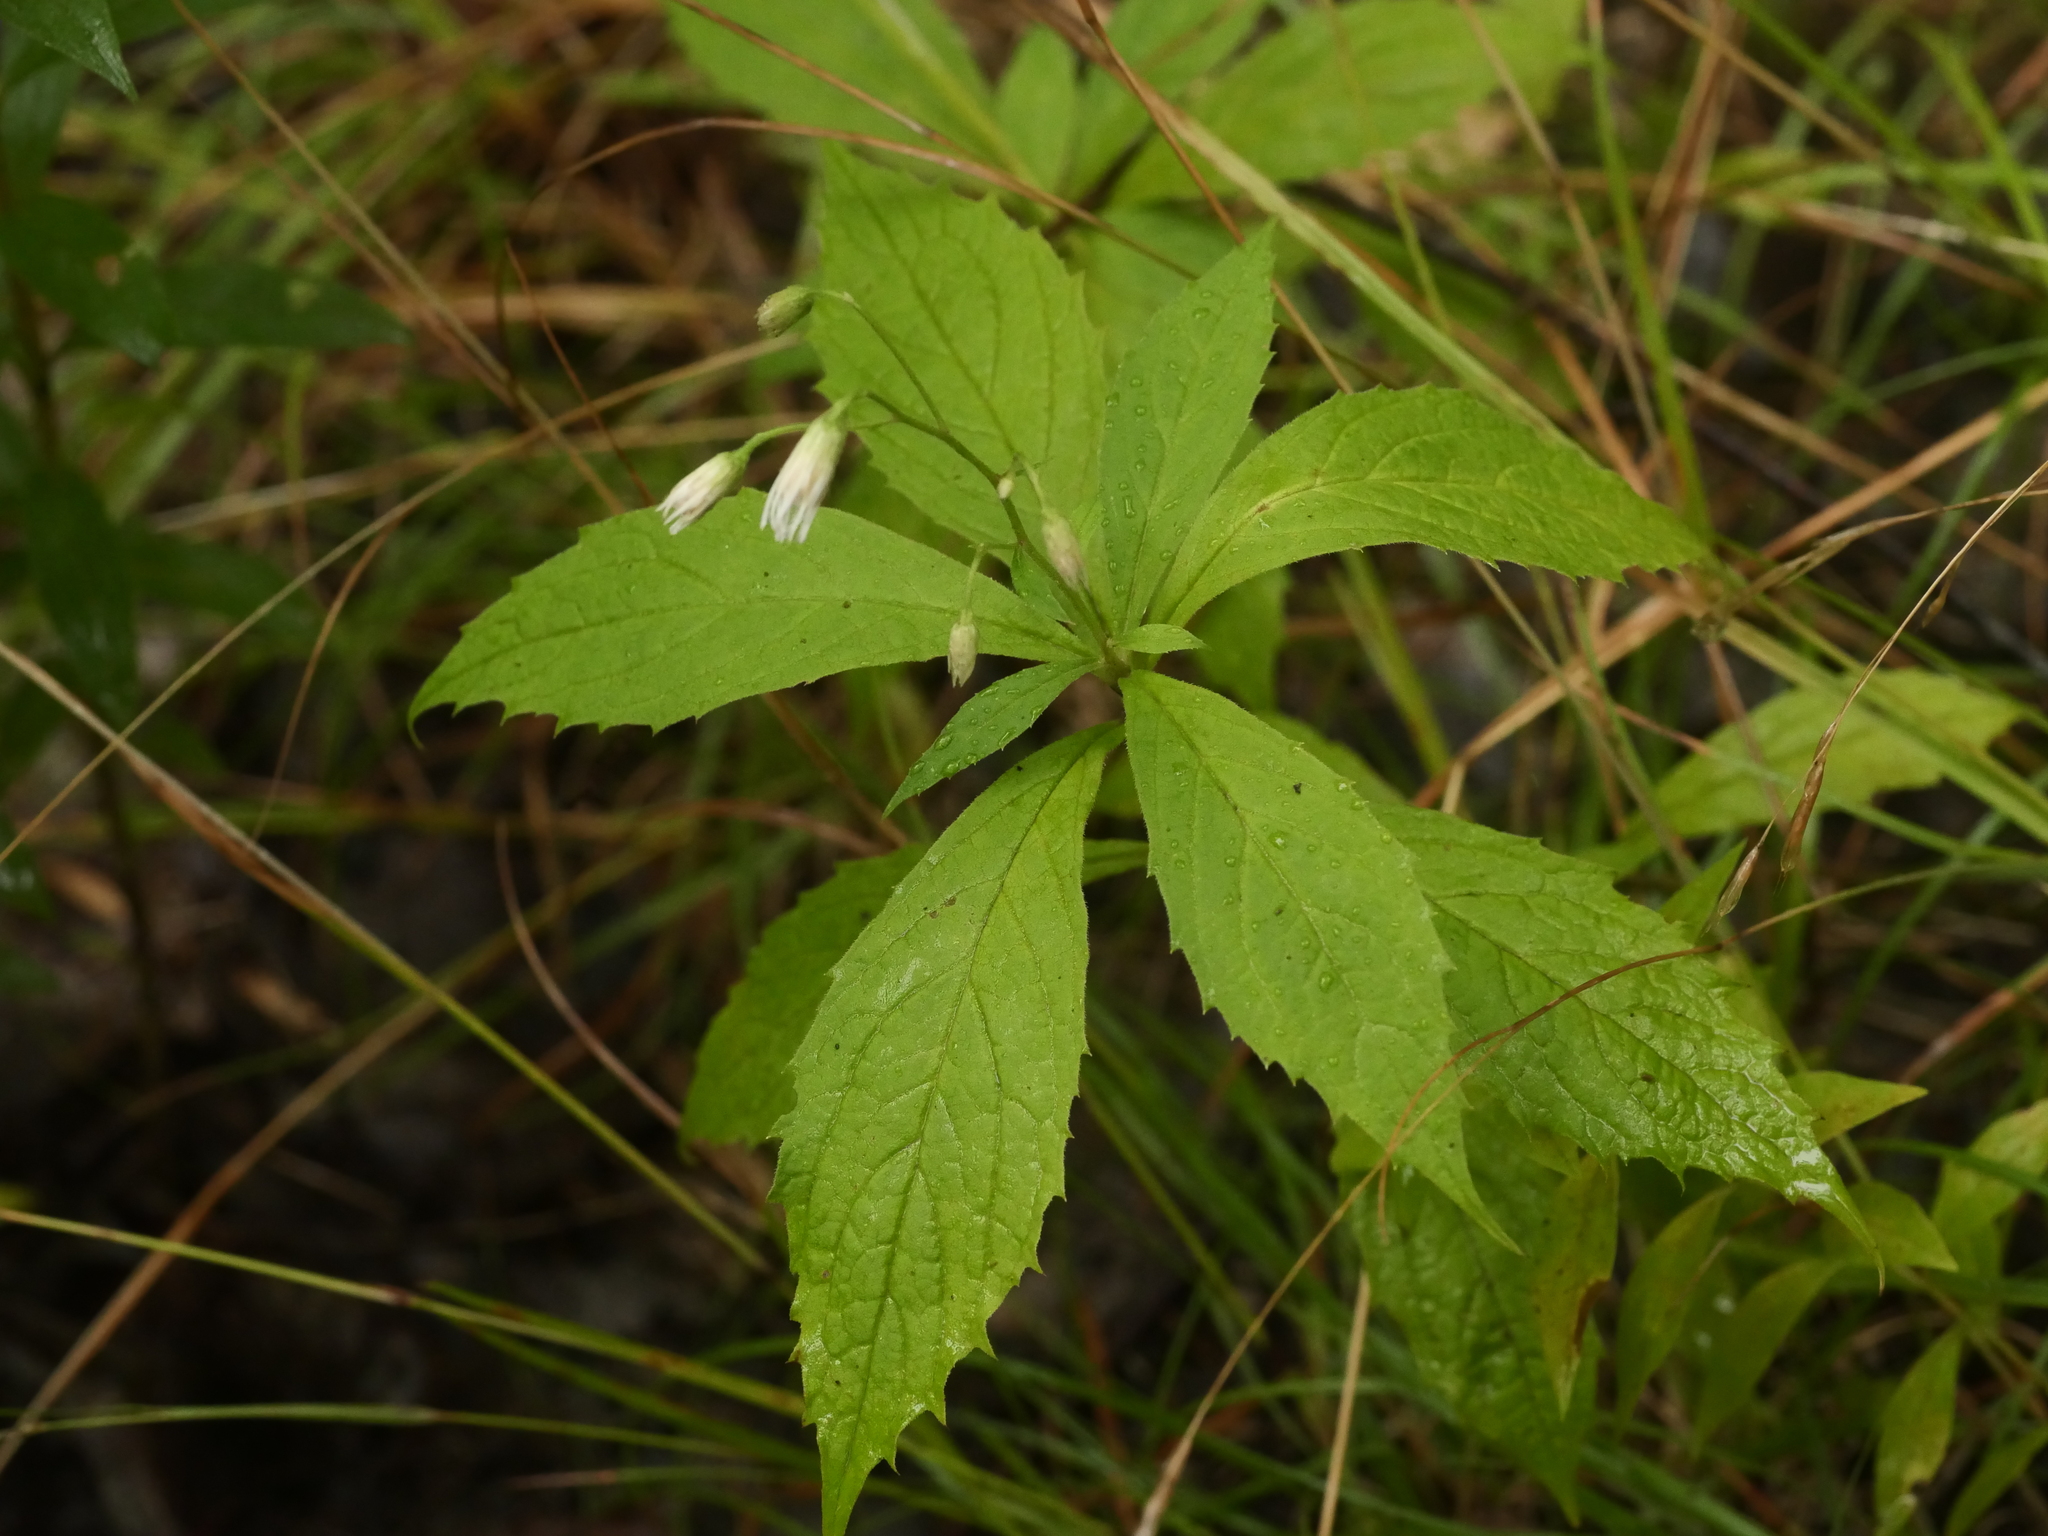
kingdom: Plantae
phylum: Tracheophyta
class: Magnoliopsida
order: Asterales
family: Asteraceae
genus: Oclemena
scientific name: Oclemena acuminata
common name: Mountain aster
